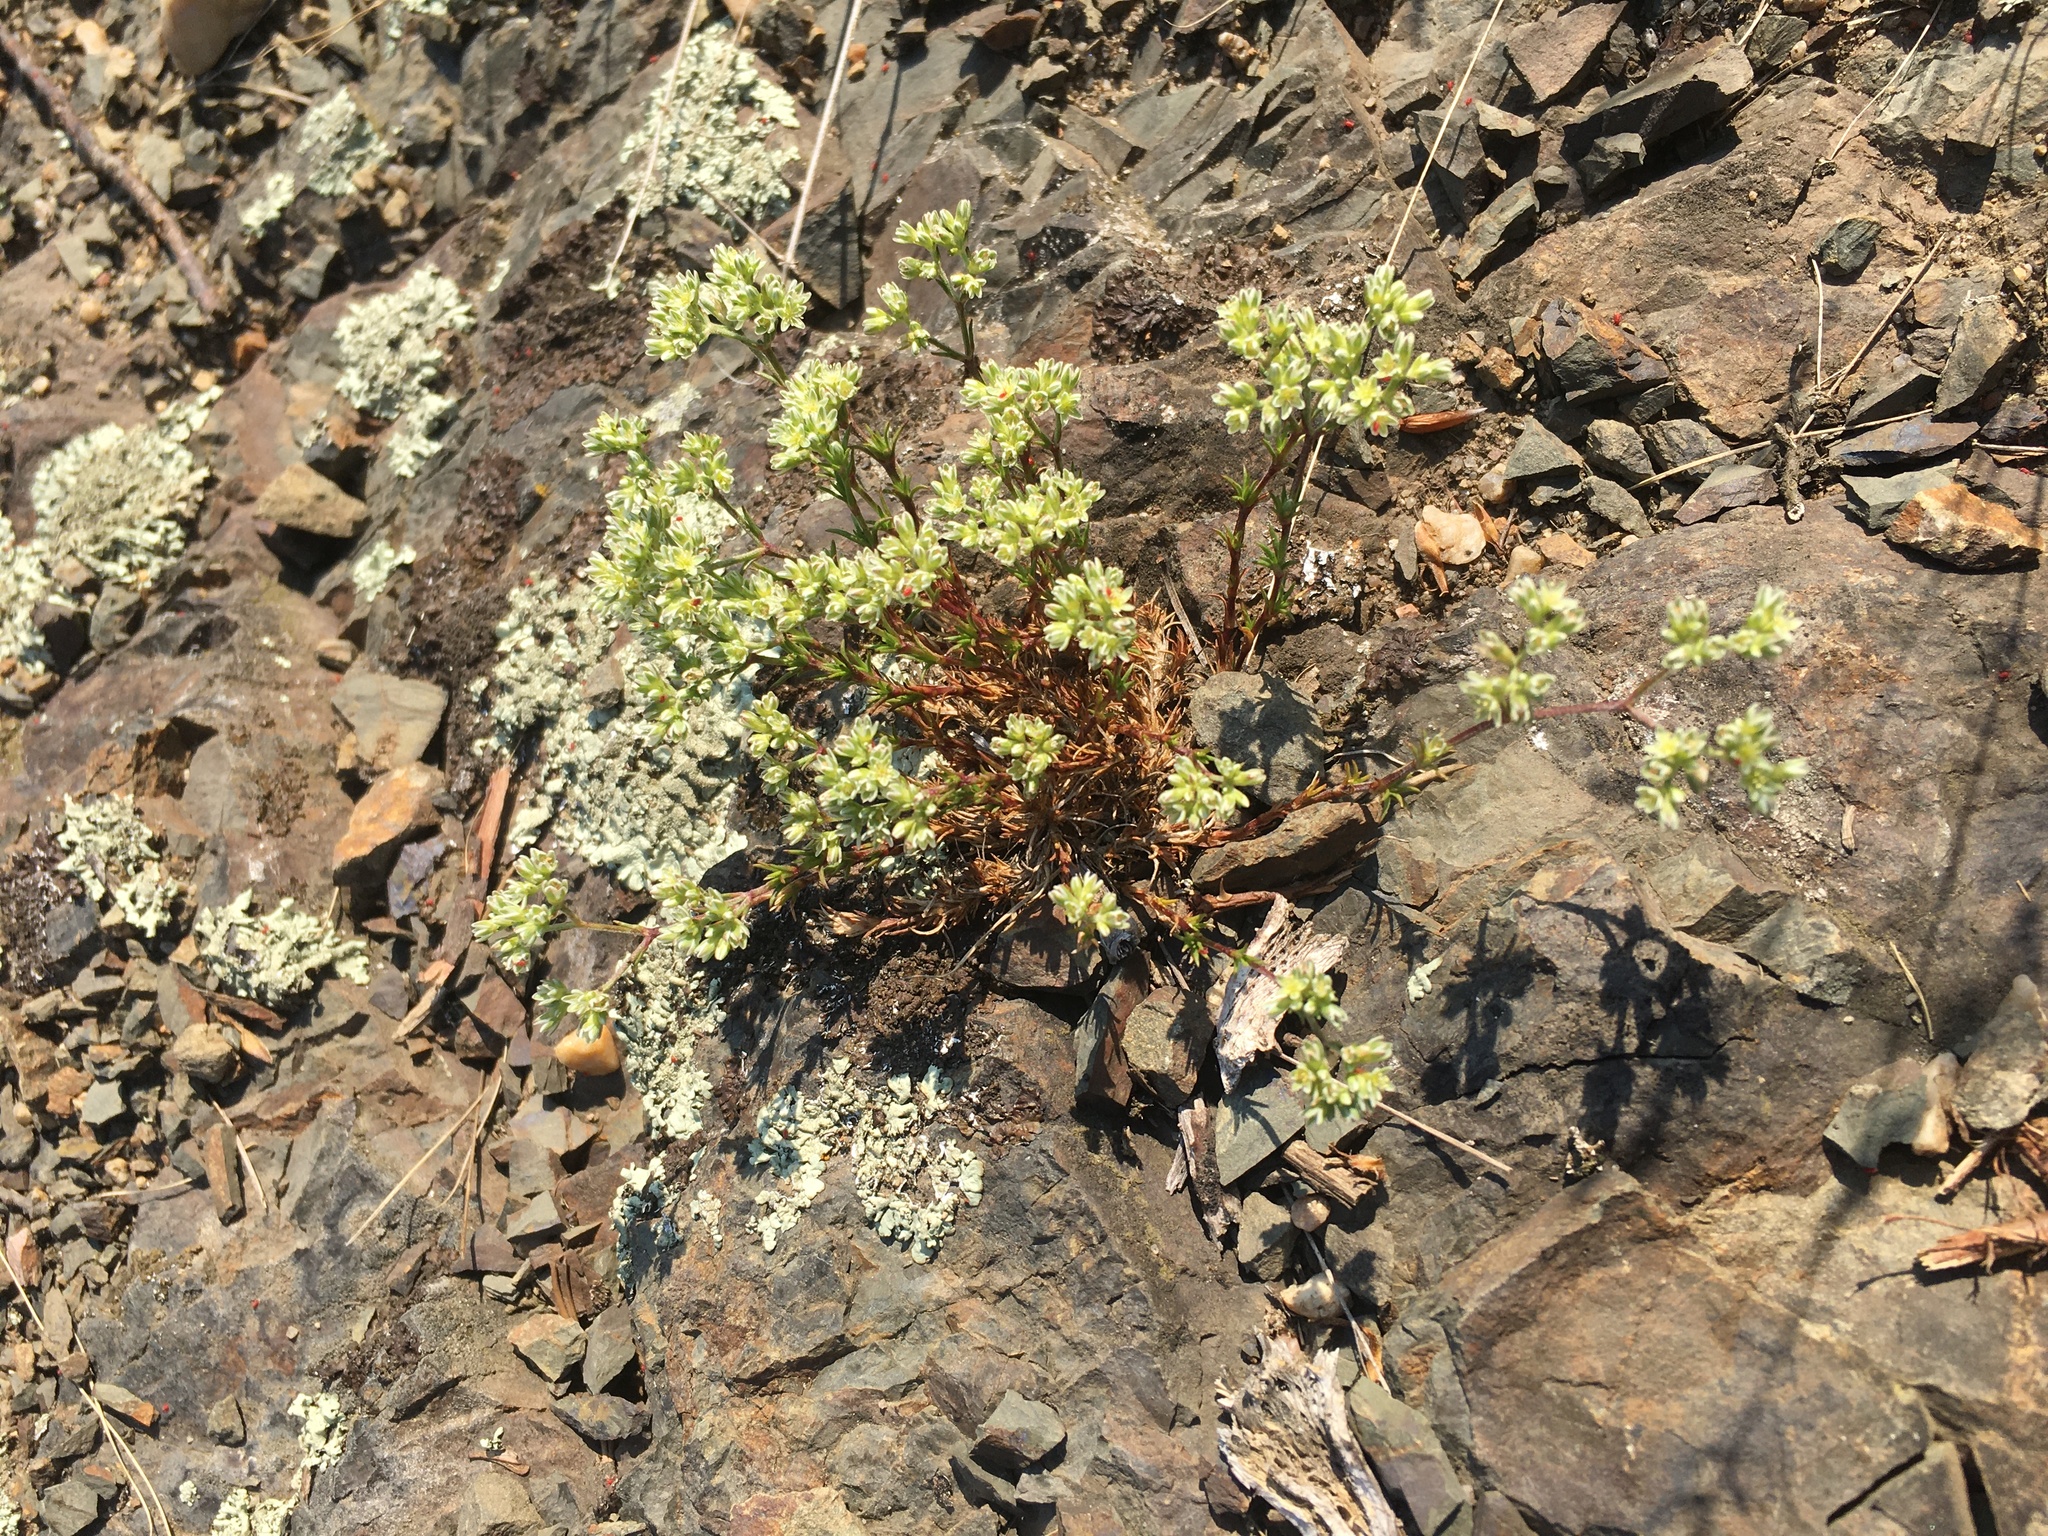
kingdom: Plantae
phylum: Tracheophyta
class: Magnoliopsida
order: Caryophyllales
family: Caryophyllaceae
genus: Scleranthus
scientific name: Scleranthus perennis
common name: Perennial knawel
